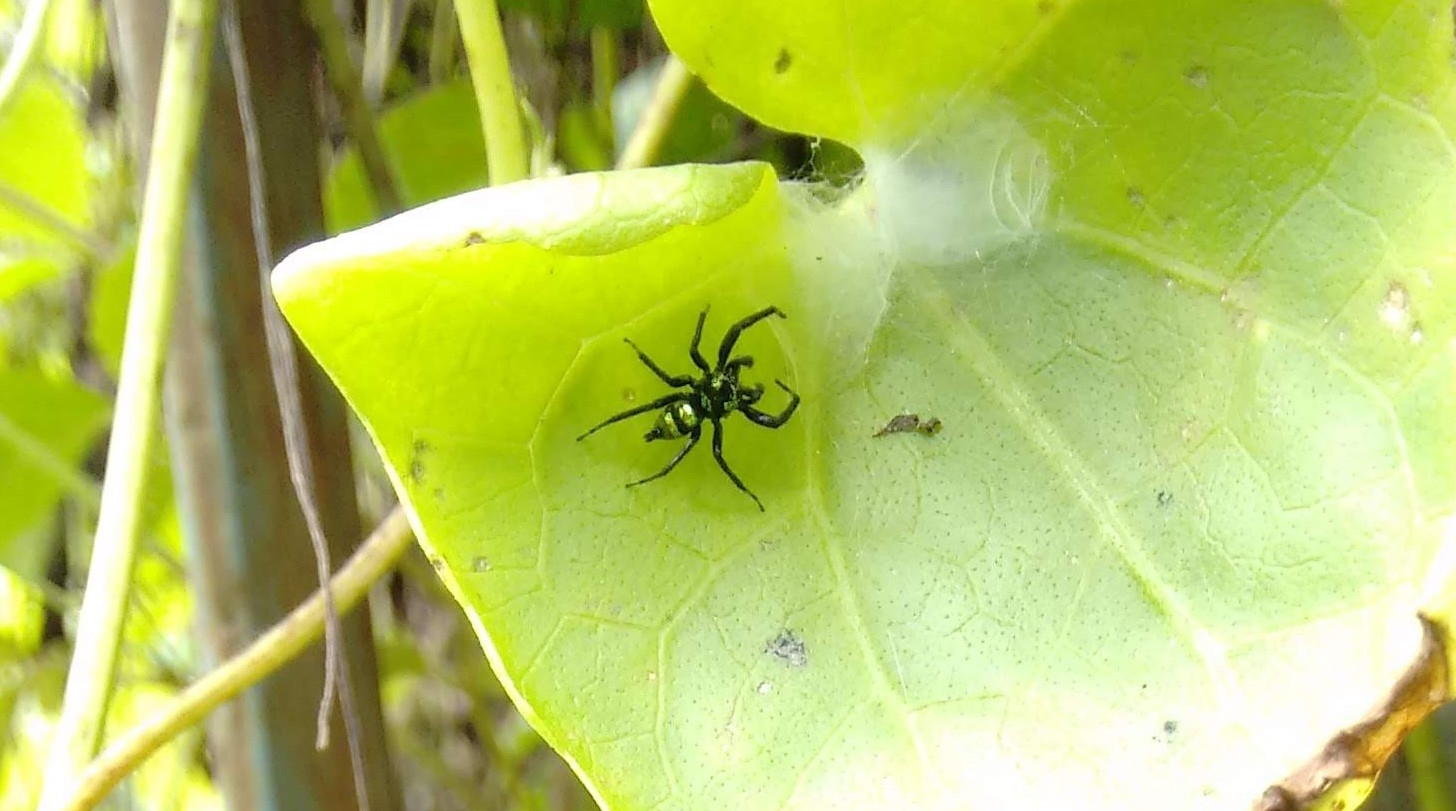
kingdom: Animalia
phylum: Arthropoda
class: Arachnida
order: Araneae
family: Salticidae
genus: Phintella
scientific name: Phintella vittata
